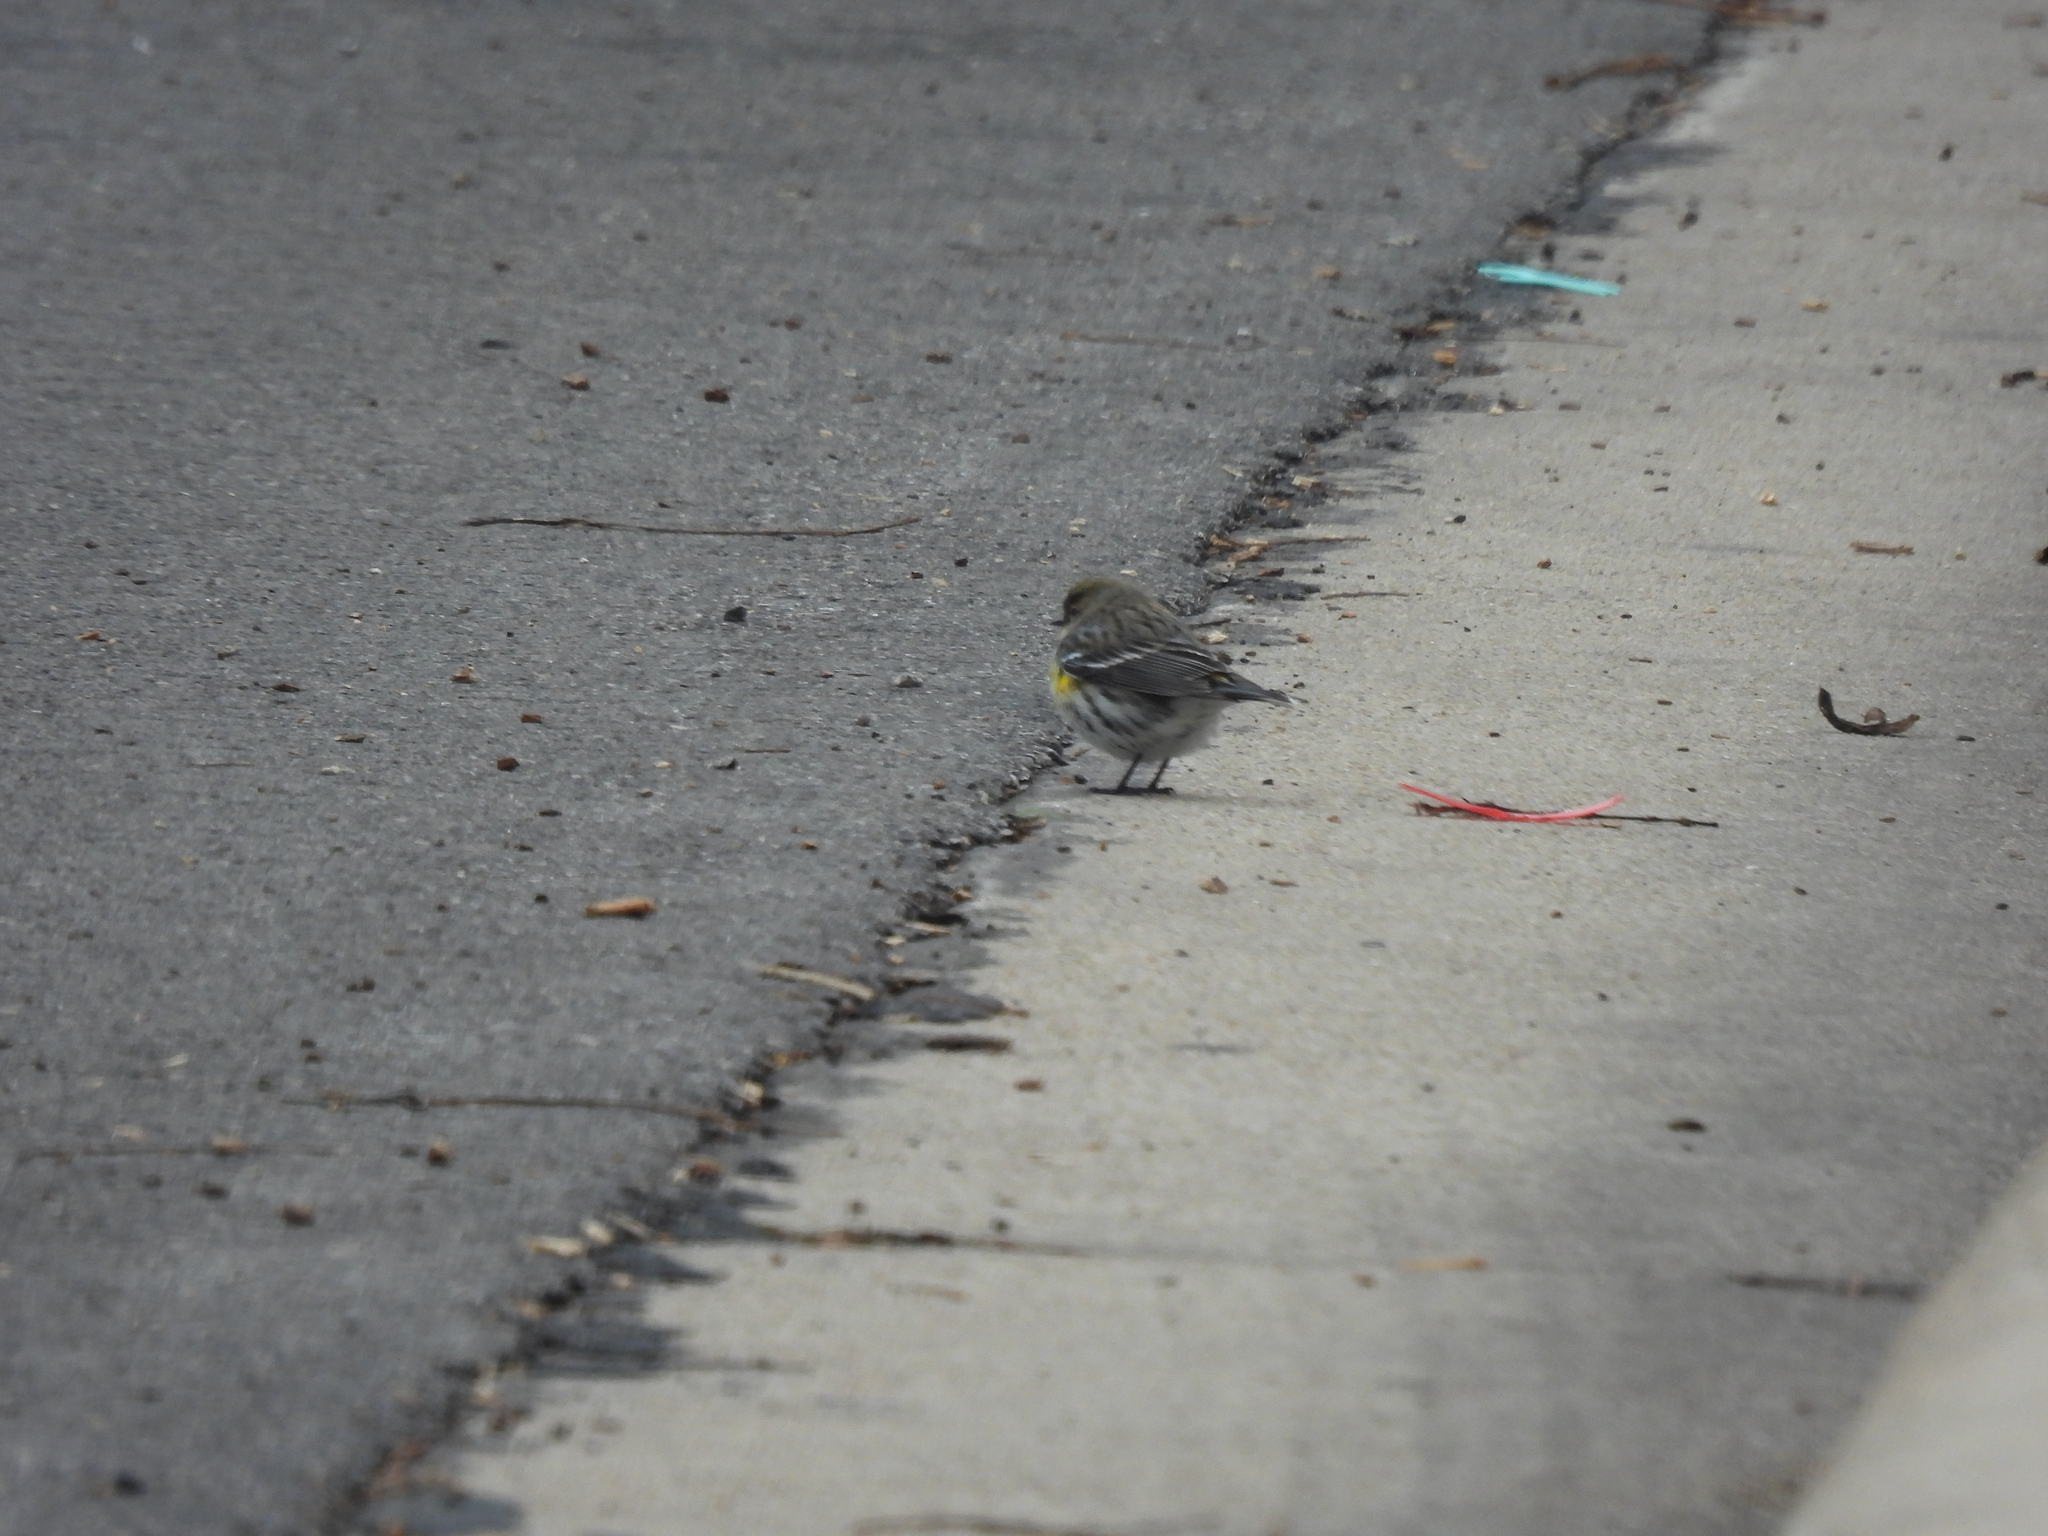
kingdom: Animalia
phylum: Chordata
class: Aves
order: Passeriformes
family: Parulidae
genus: Setophaga
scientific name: Setophaga coronata
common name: Myrtle warbler
